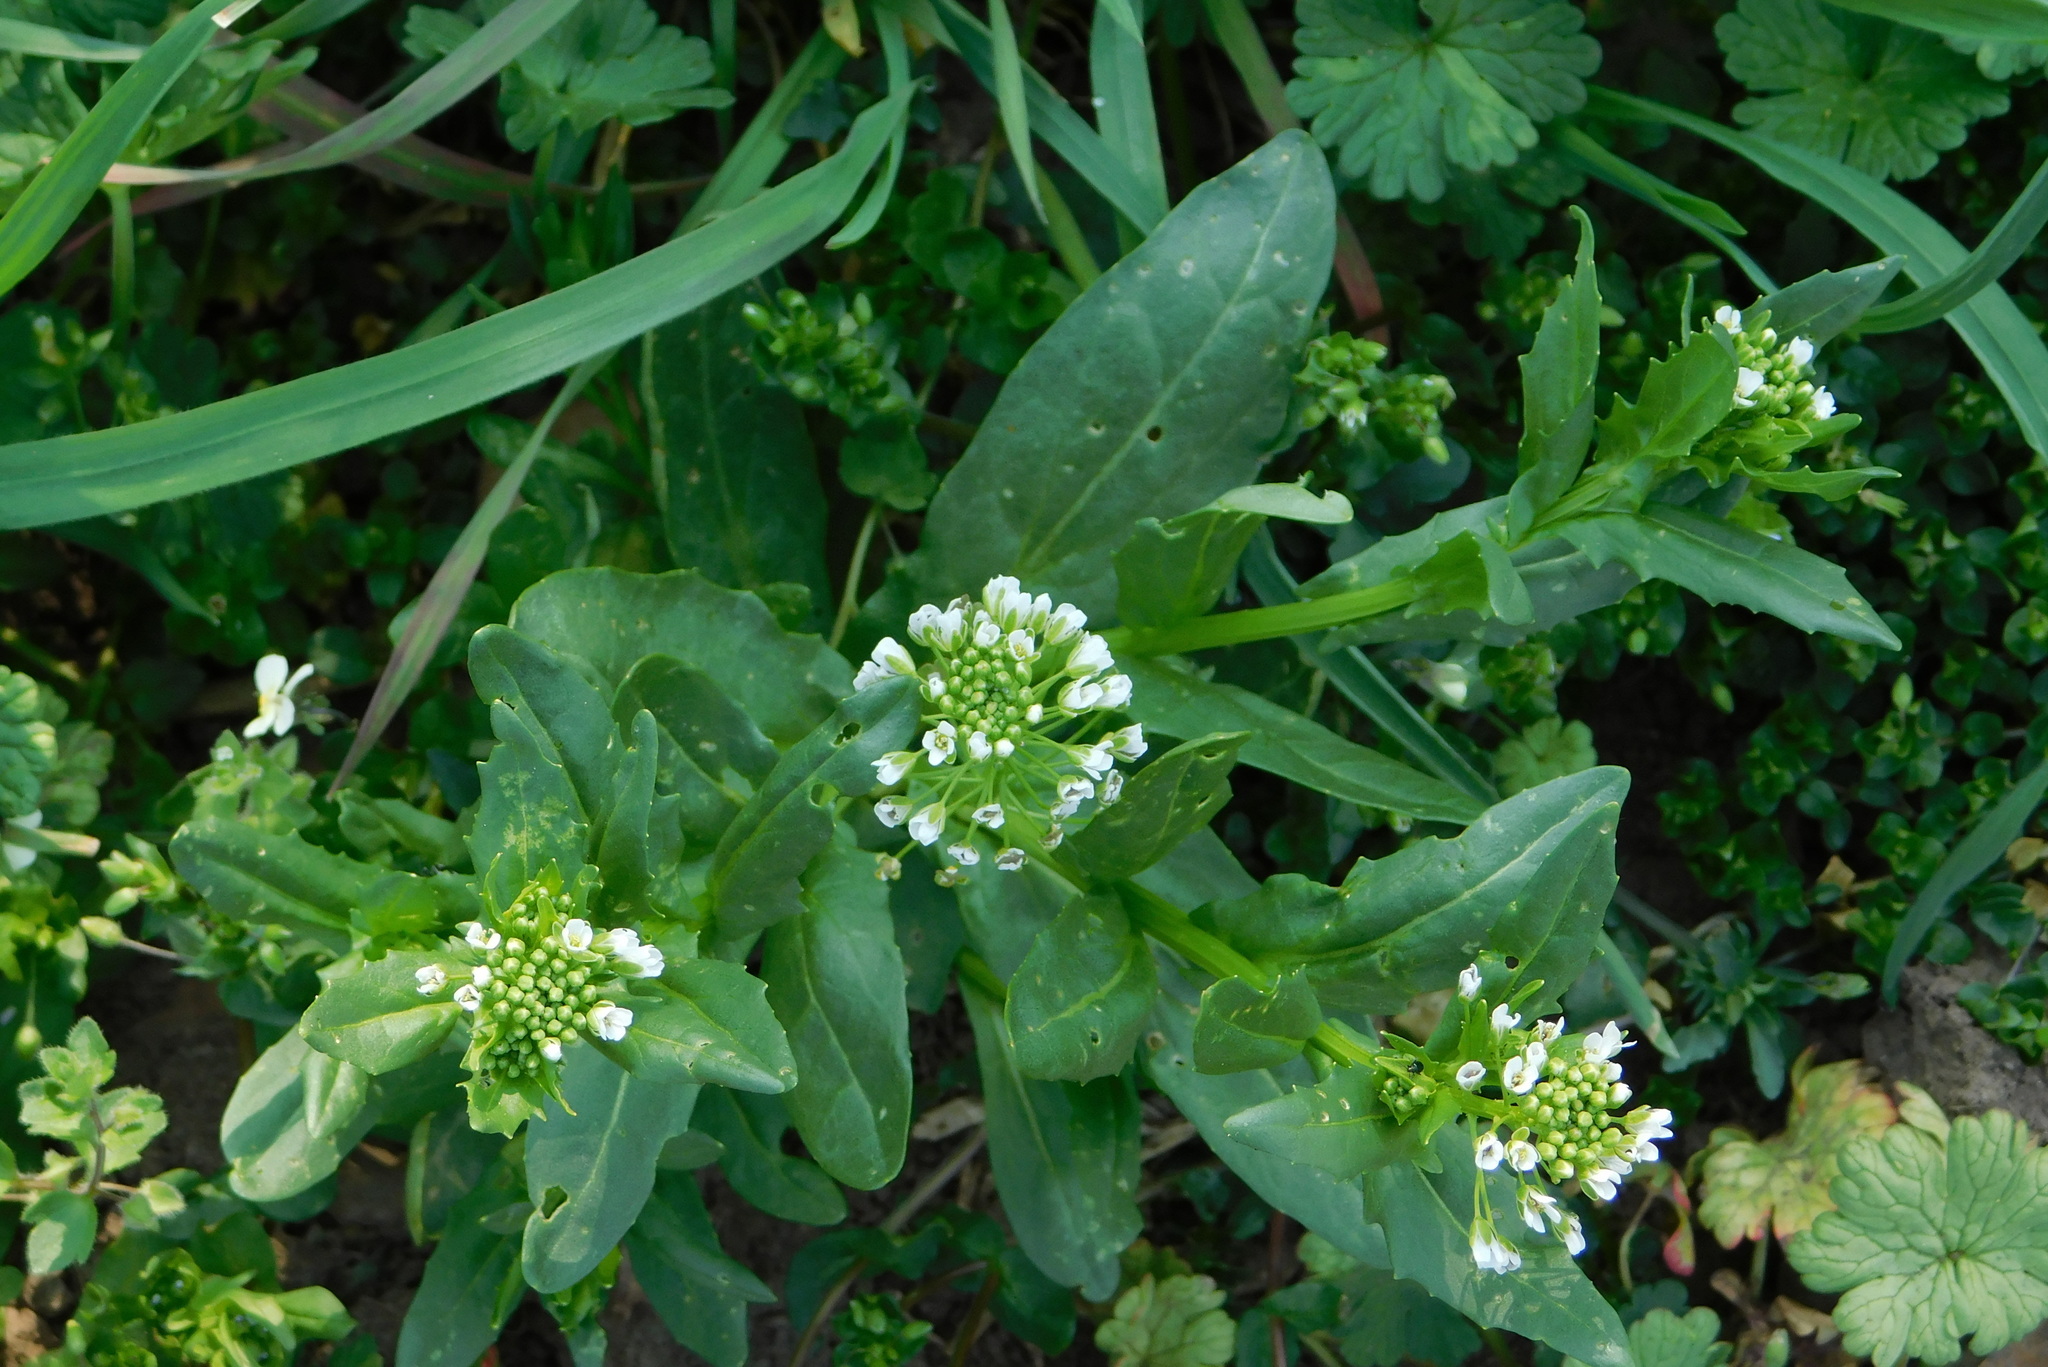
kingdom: Plantae
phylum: Tracheophyta
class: Magnoliopsida
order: Brassicales
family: Brassicaceae
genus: Thlaspi
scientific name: Thlaspi arvense
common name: Field pennycress
